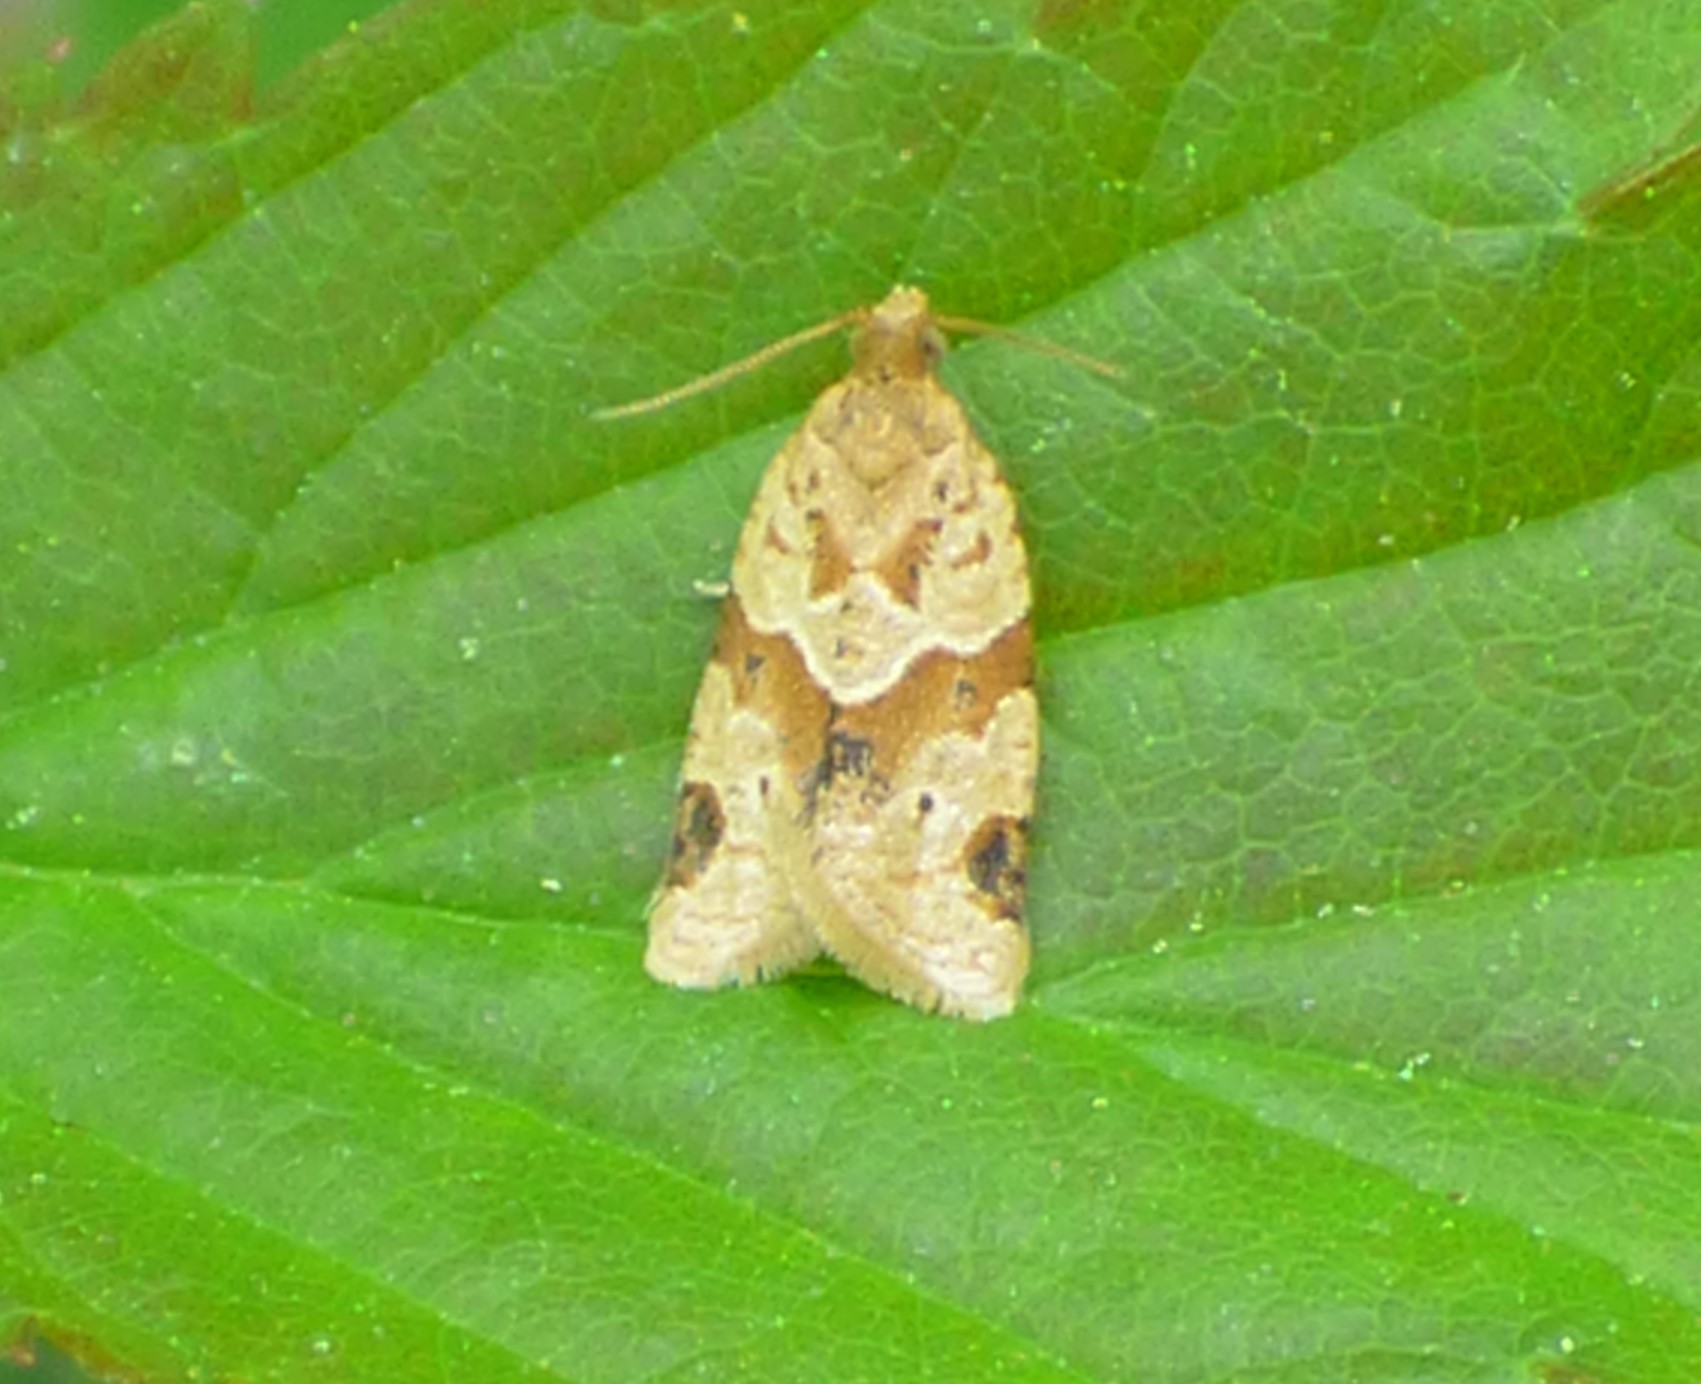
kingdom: Animalia
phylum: Arthropoda
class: Insecta
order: Lepidoptera
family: Tortricidae
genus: Clepsis
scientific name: Clepsis peritana
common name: Garden tortrix
